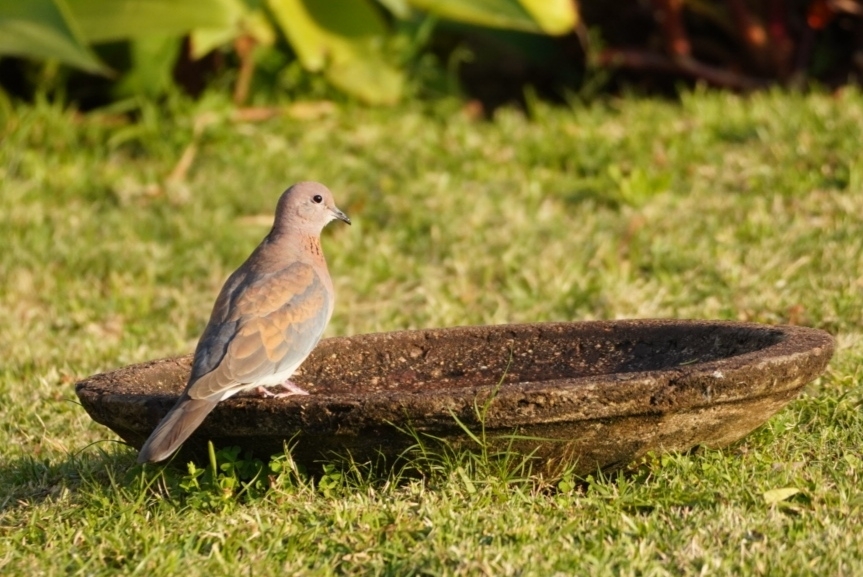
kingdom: Animalia
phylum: Chordata
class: Aves
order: Columbiformes
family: Columbidae
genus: Spilopelia
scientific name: Spilopelia senegalensis
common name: Laughing dove
